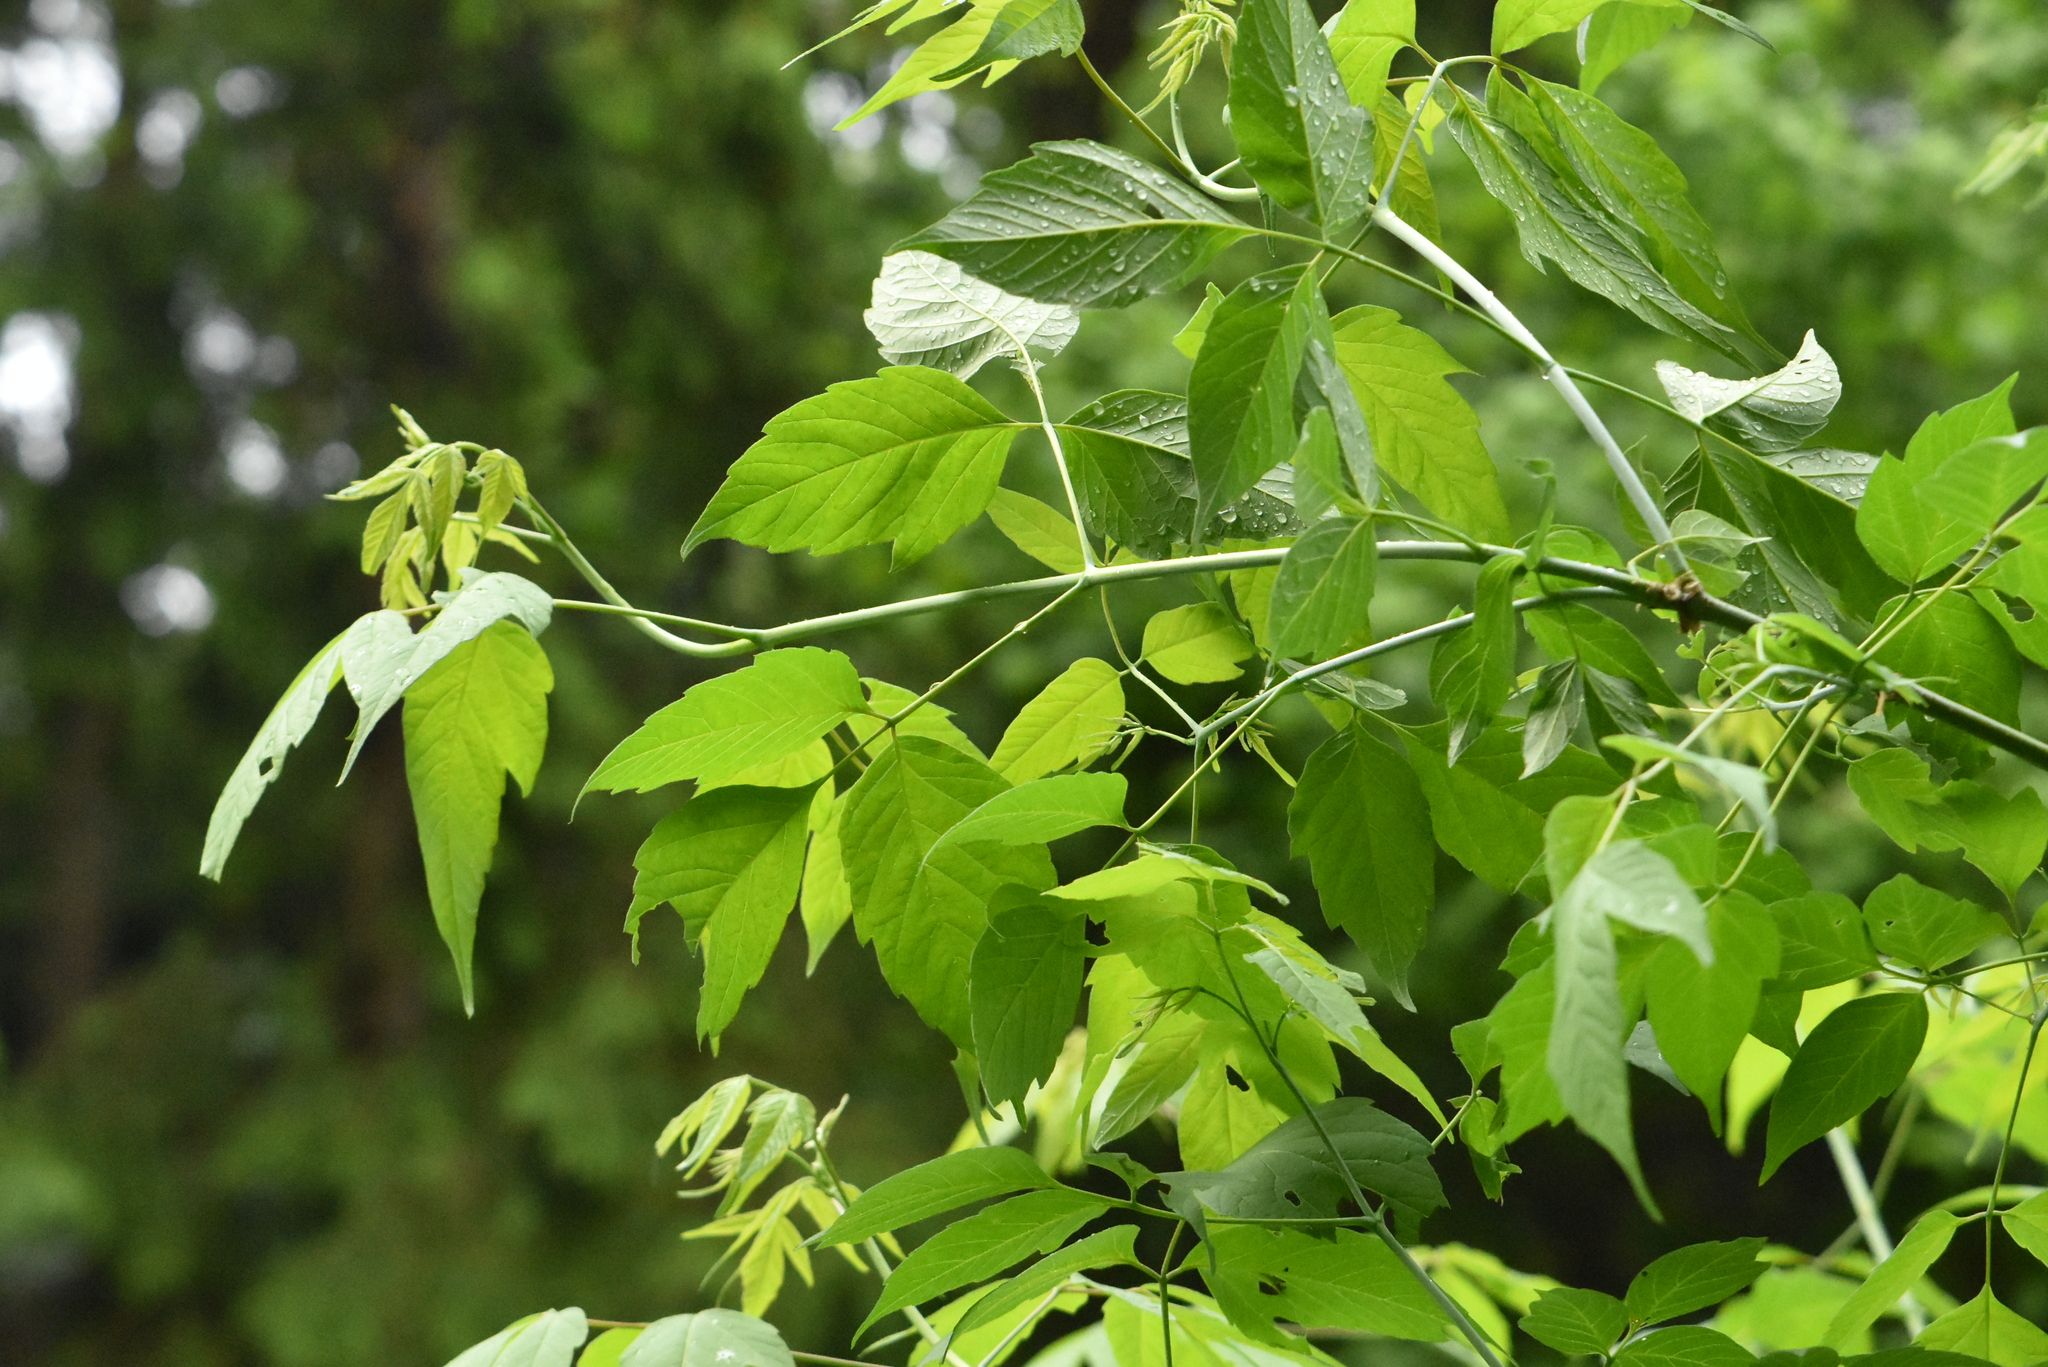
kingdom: Plantae
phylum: Tracheophyta
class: Magnoliopsida
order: Sapindales
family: Sapindaceae
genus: Acer
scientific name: Acer negundo
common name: Ashleaf maple
